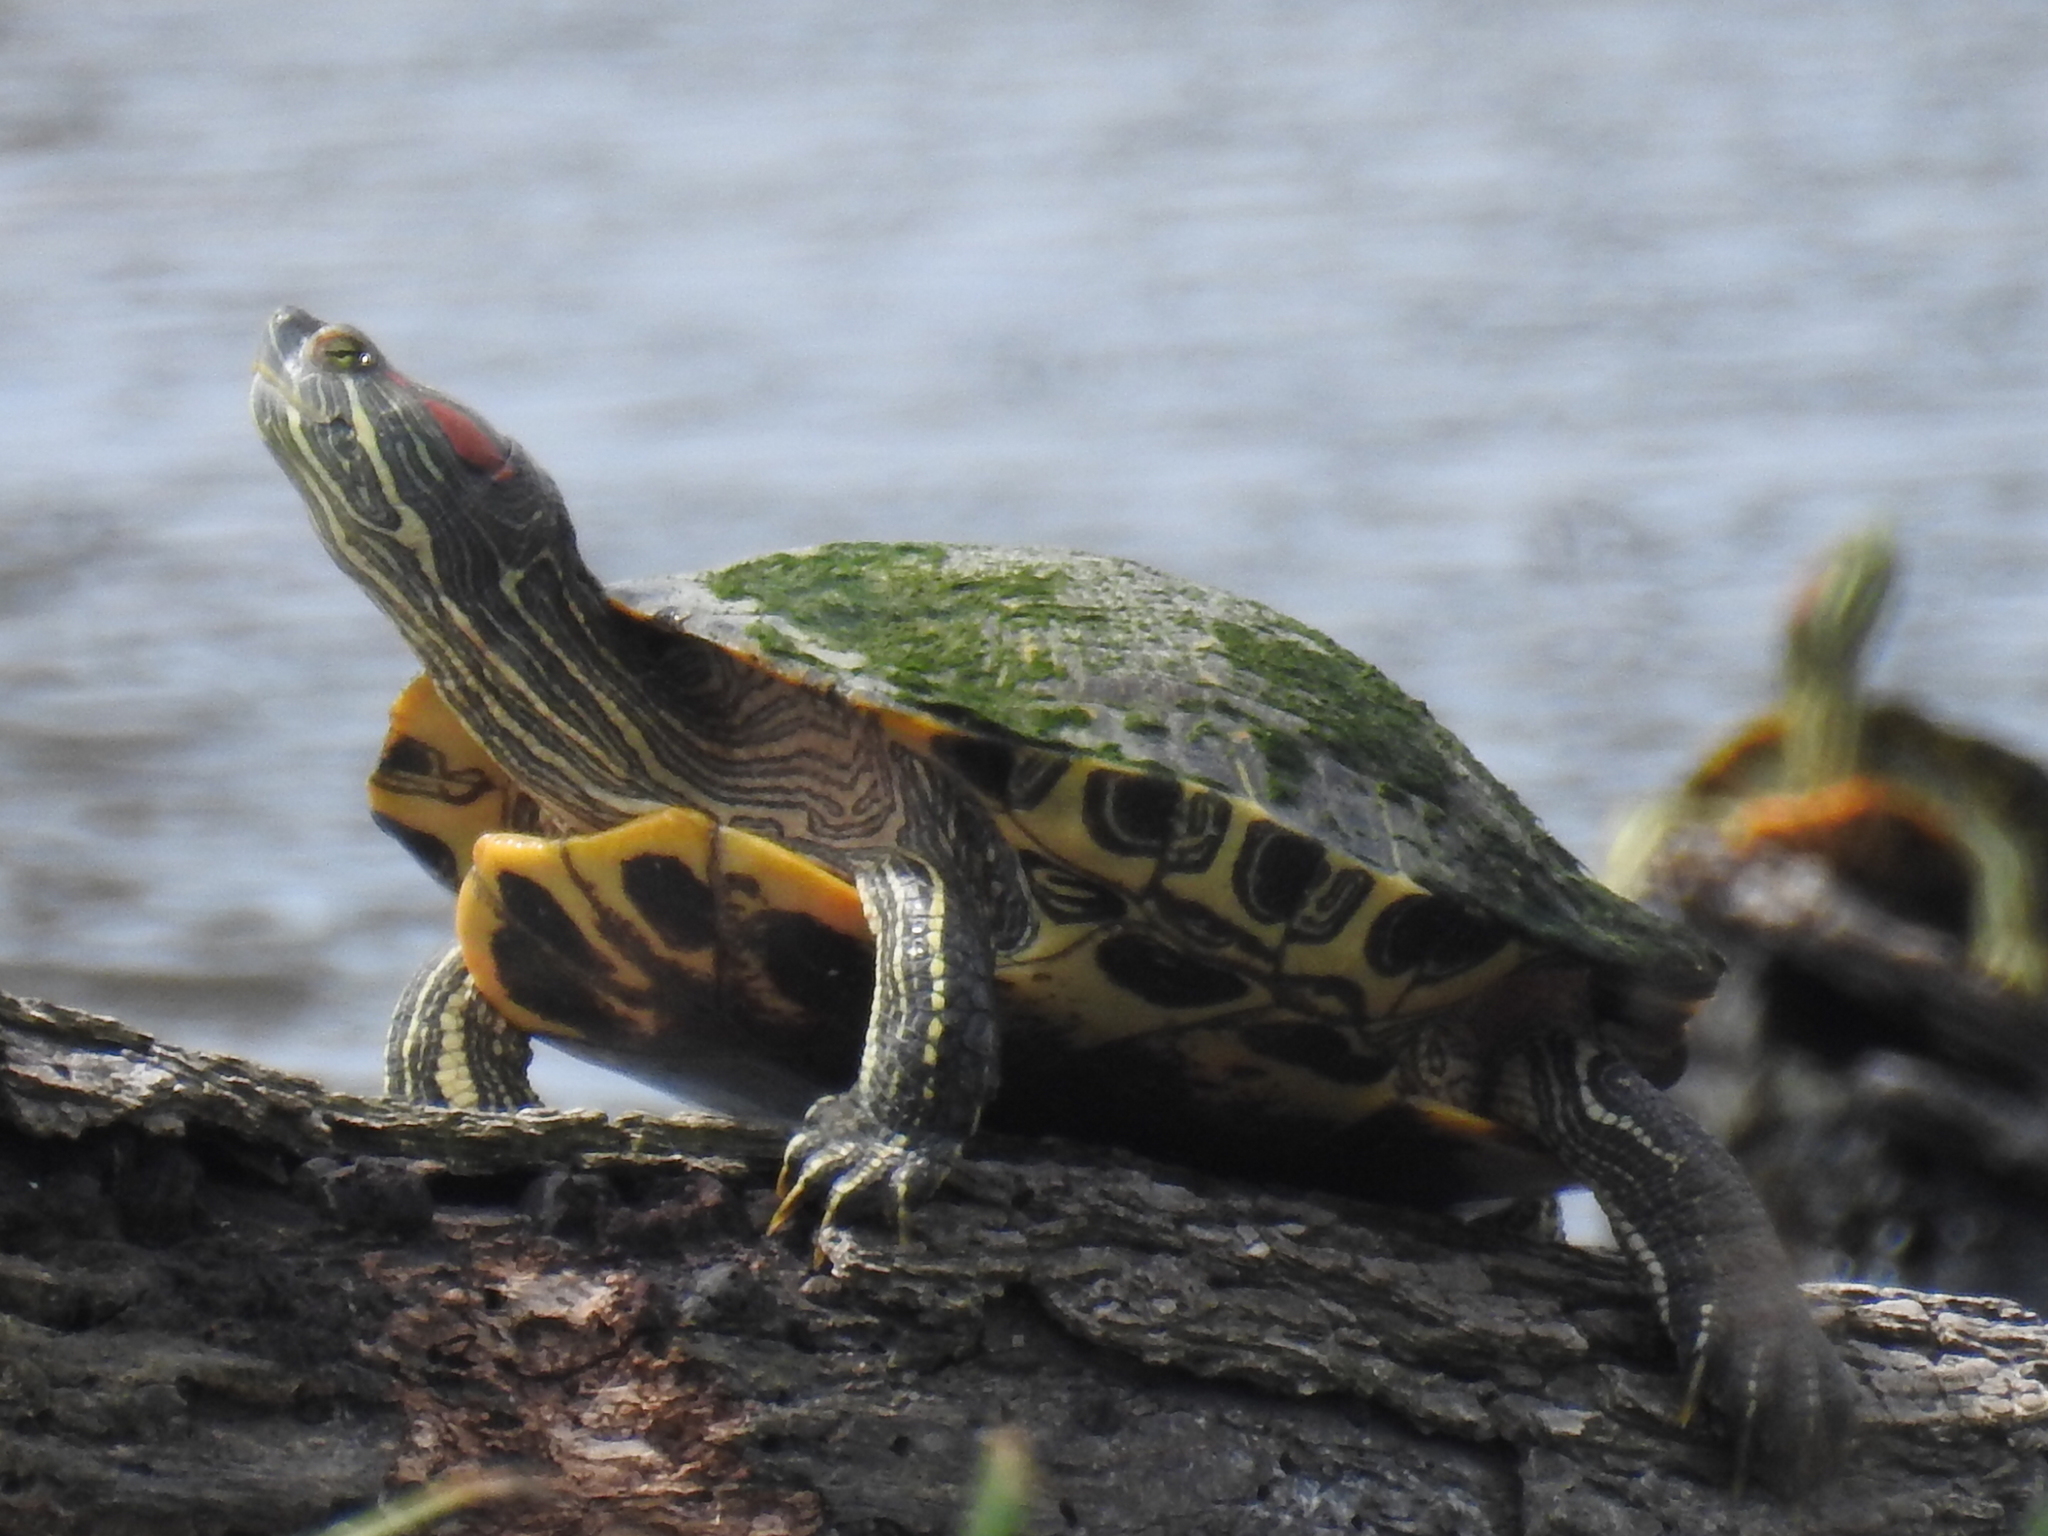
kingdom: Animalia
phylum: Chordata
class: Testudines
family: Emydidae
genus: Trachemys
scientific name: Trachemys scripta
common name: Slider
